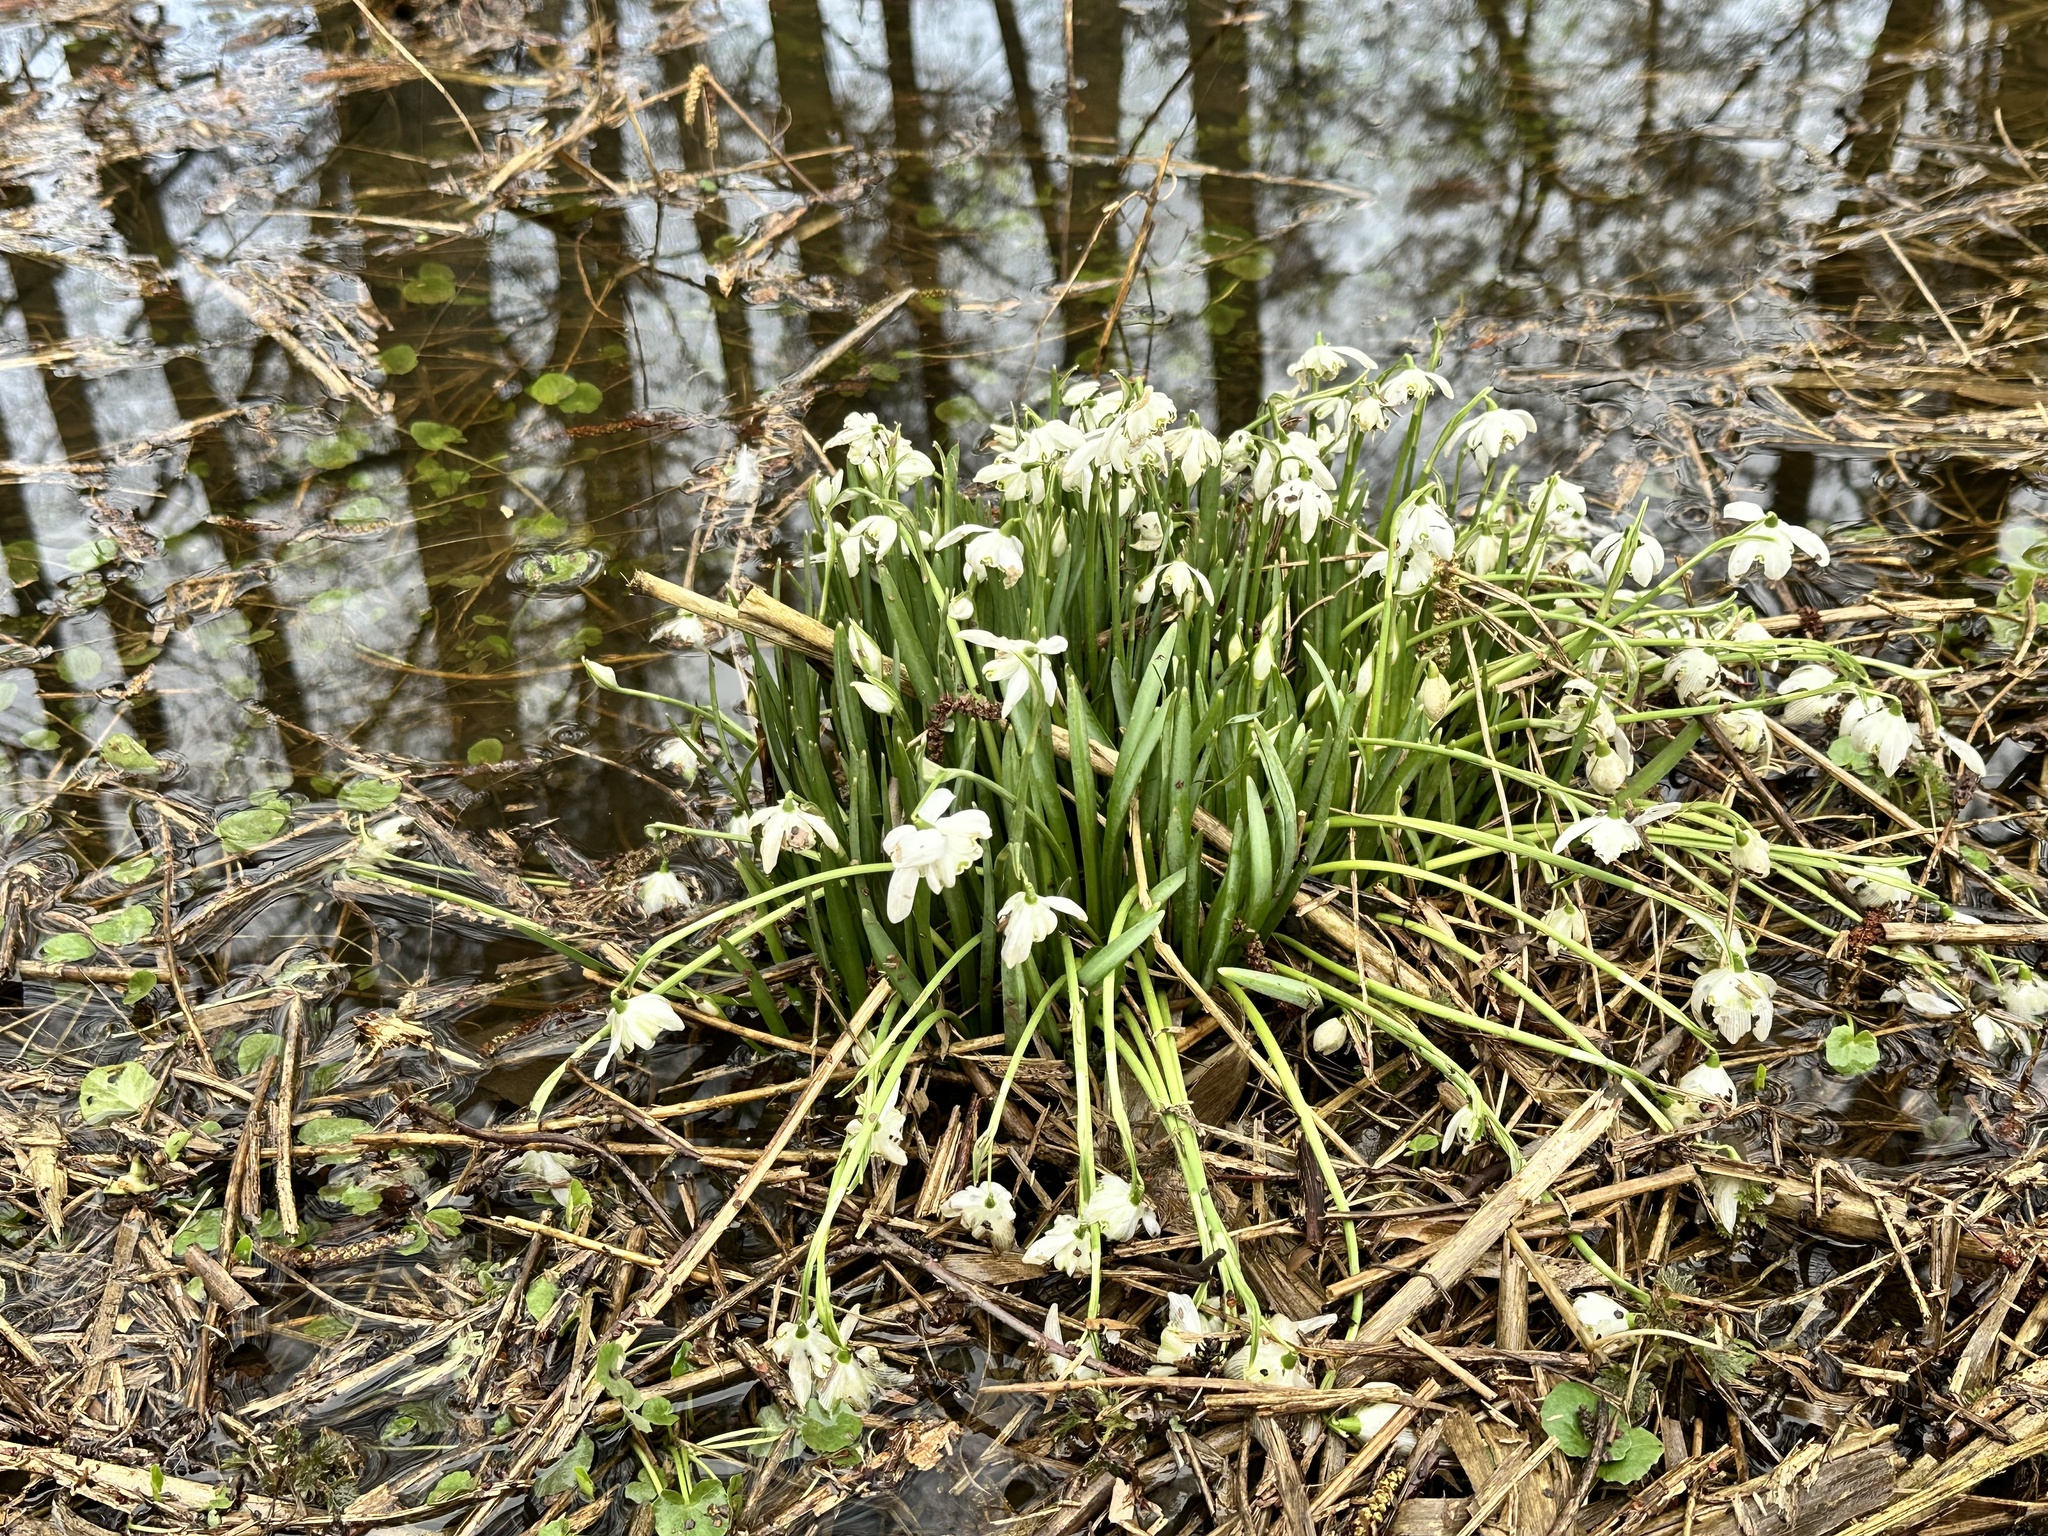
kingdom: Plantae
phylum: Tracheophyta
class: Liliopsida
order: Asparagales
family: Amaryllidaceae
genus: Galanthus
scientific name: Galanthus nivalis
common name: Snowdrop
